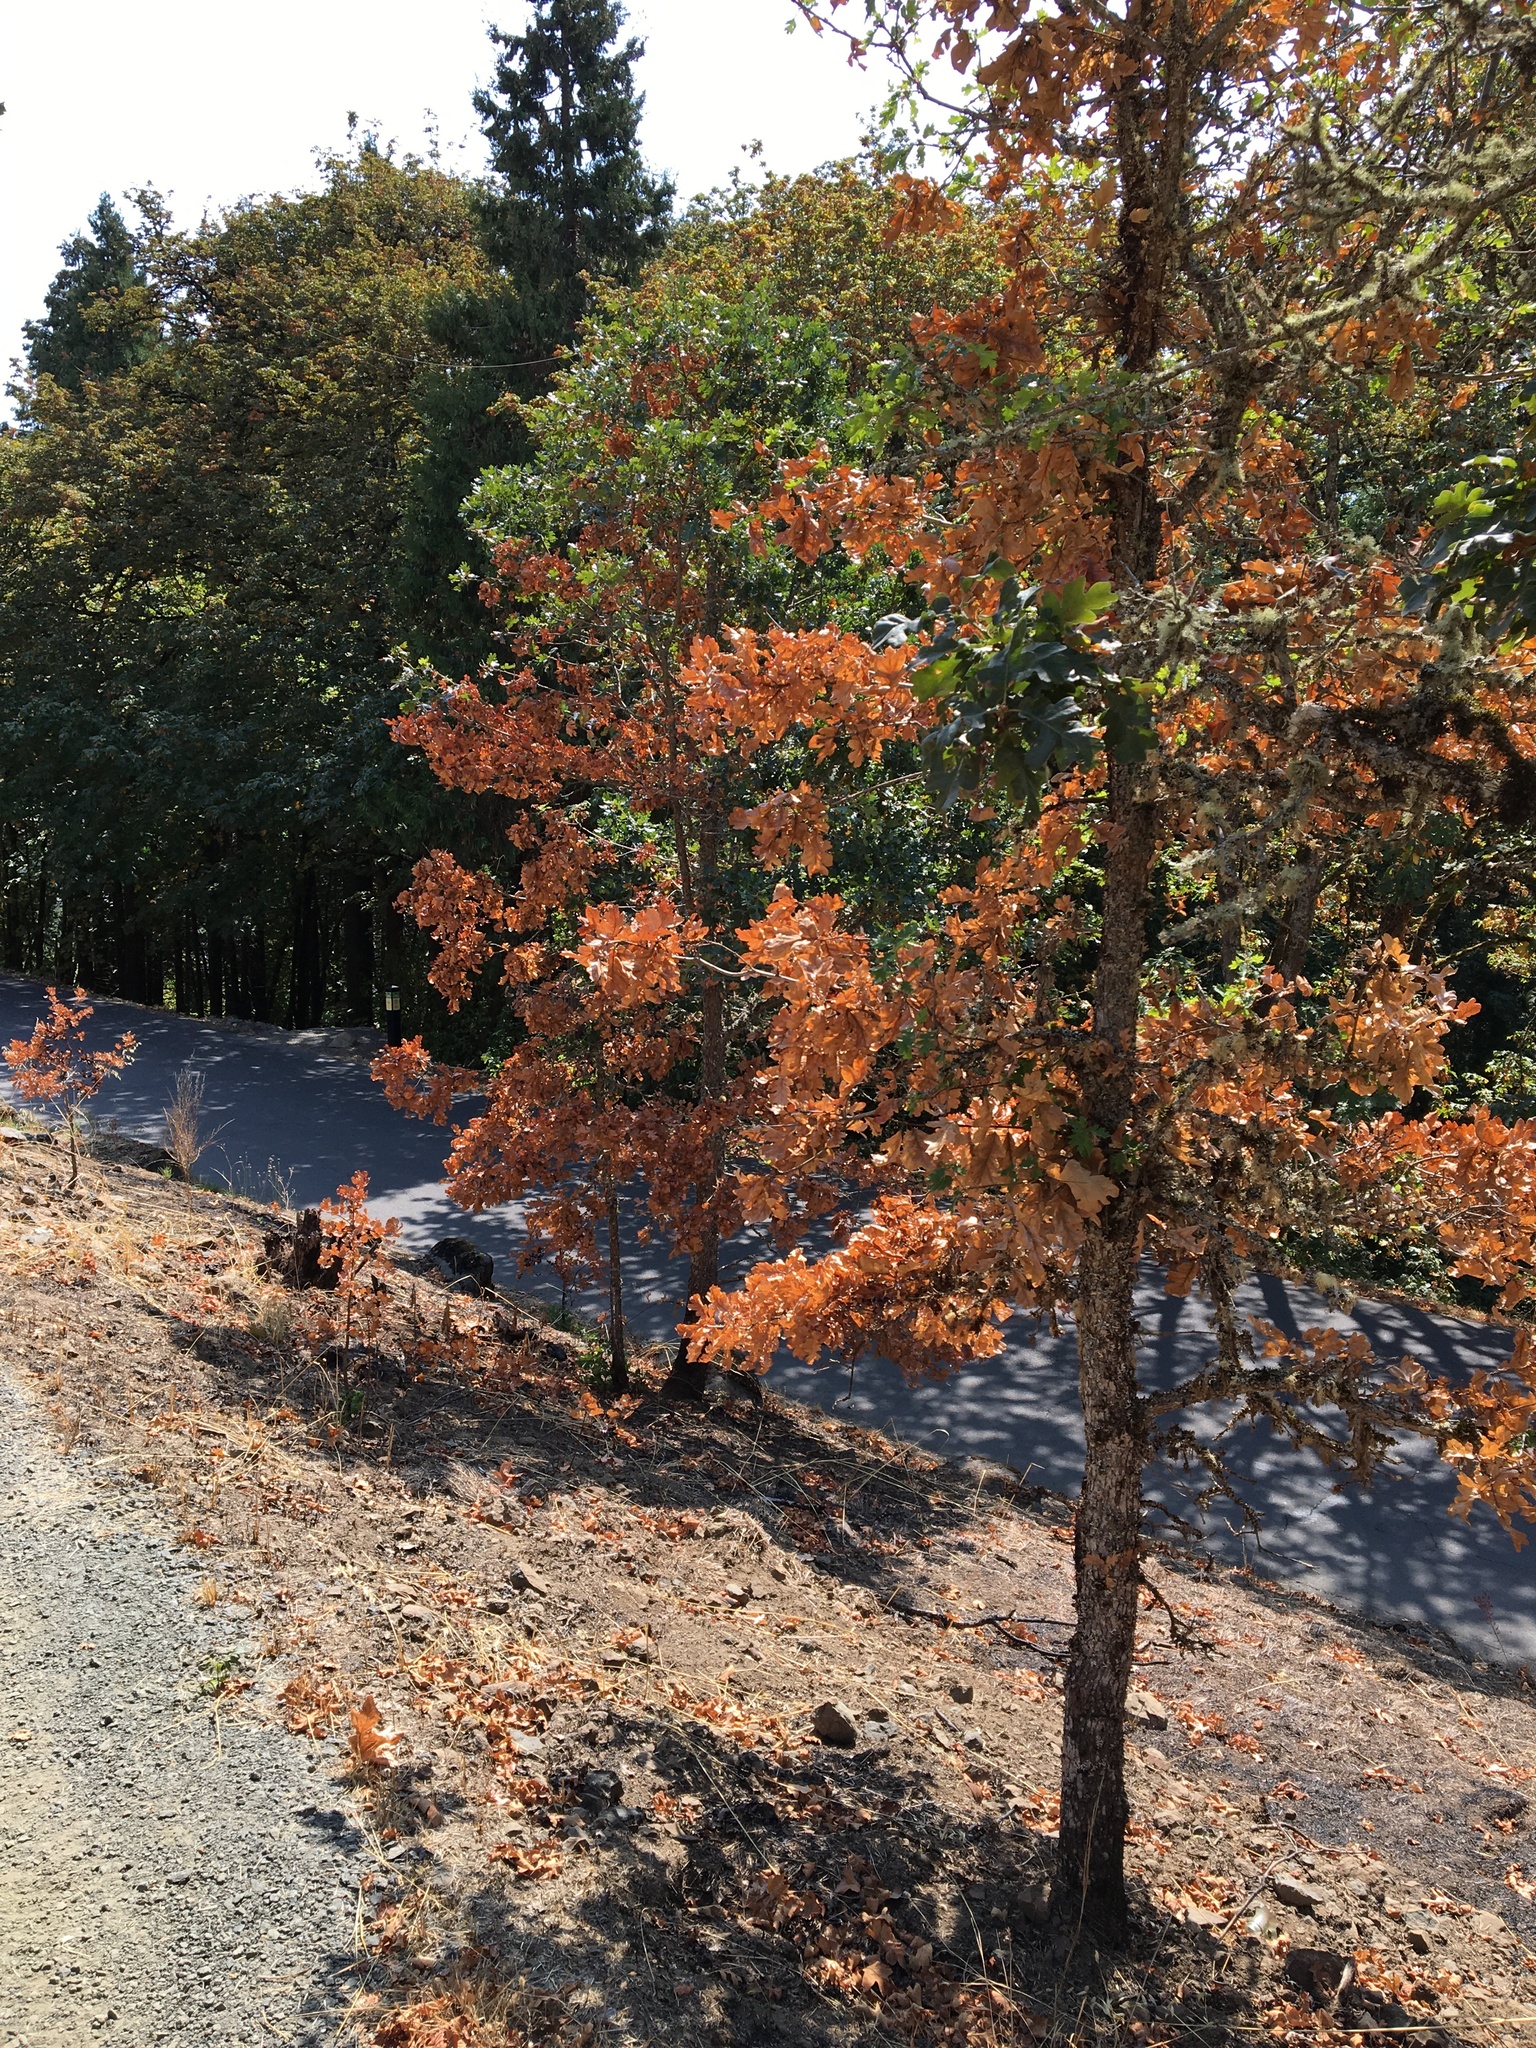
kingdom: Plantae
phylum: Tracheophyta
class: Magnoliopsida
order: Fagales
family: Fagaceae
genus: Quercus
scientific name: Quercus garryana
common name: Garry oak
